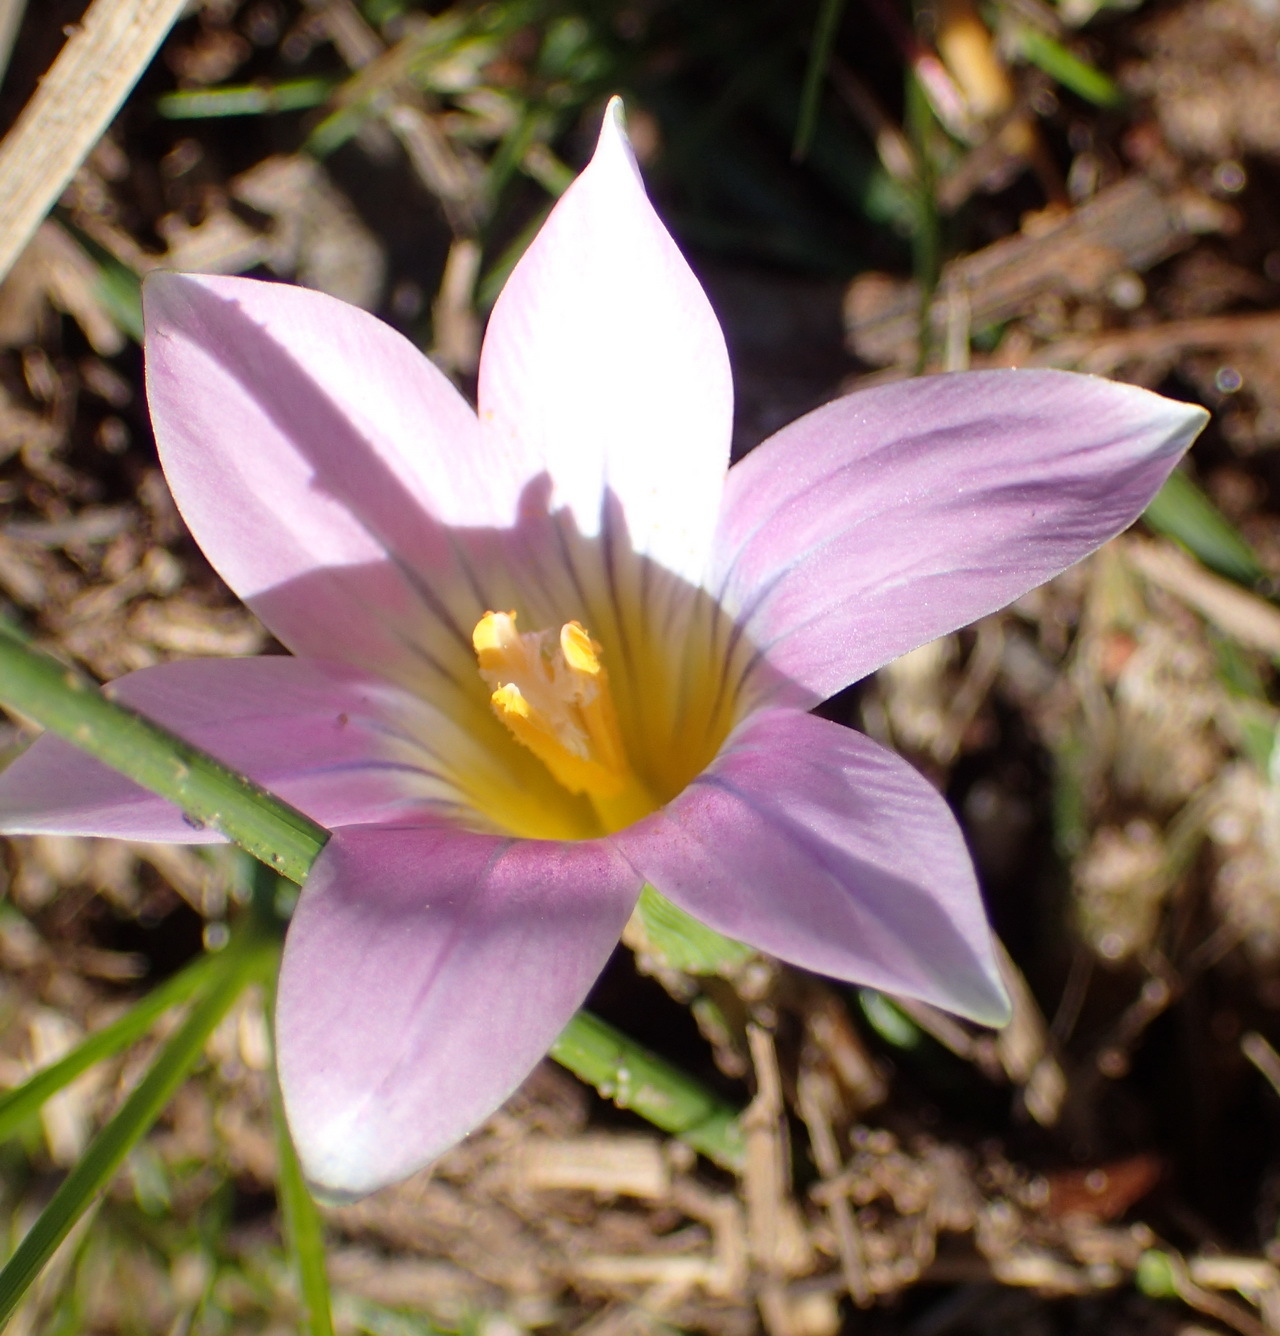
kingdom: Plantae
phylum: Tracheophyta
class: Liliopsida
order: Asparagales
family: Iridaceae
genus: Romulea
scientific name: Romulea rosea
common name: Oniongrass
